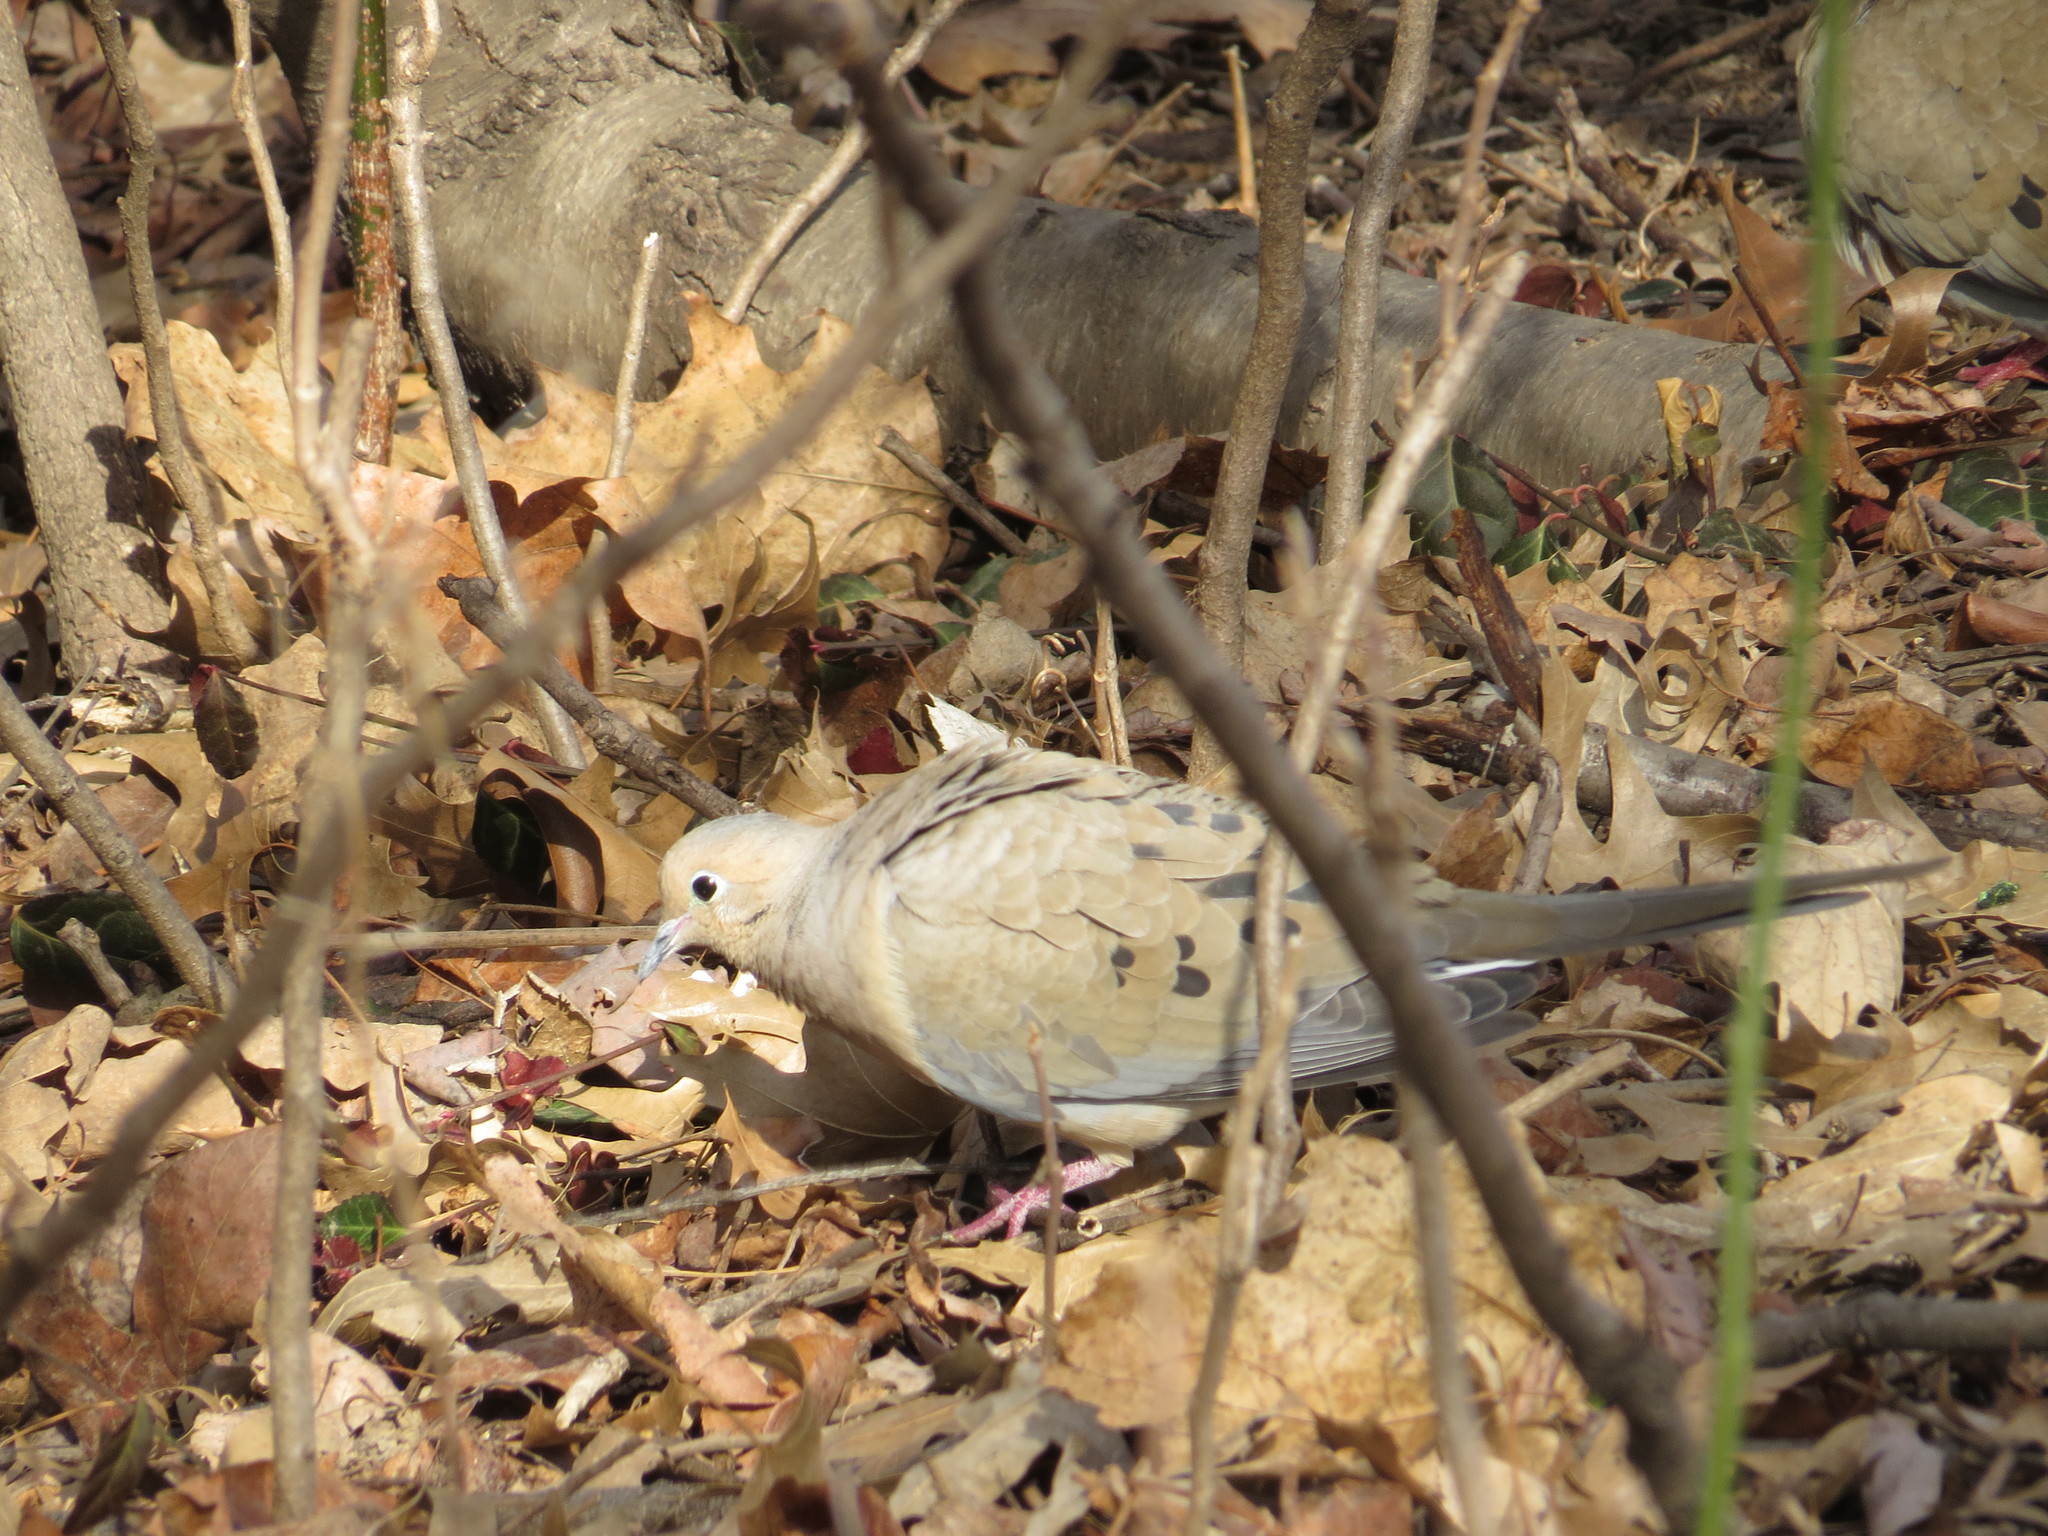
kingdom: Animalia
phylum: Chordata
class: Aves
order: Columbiformes
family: Columbidae
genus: Zenaida
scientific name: Zenaida macroura
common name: Mourning dove
